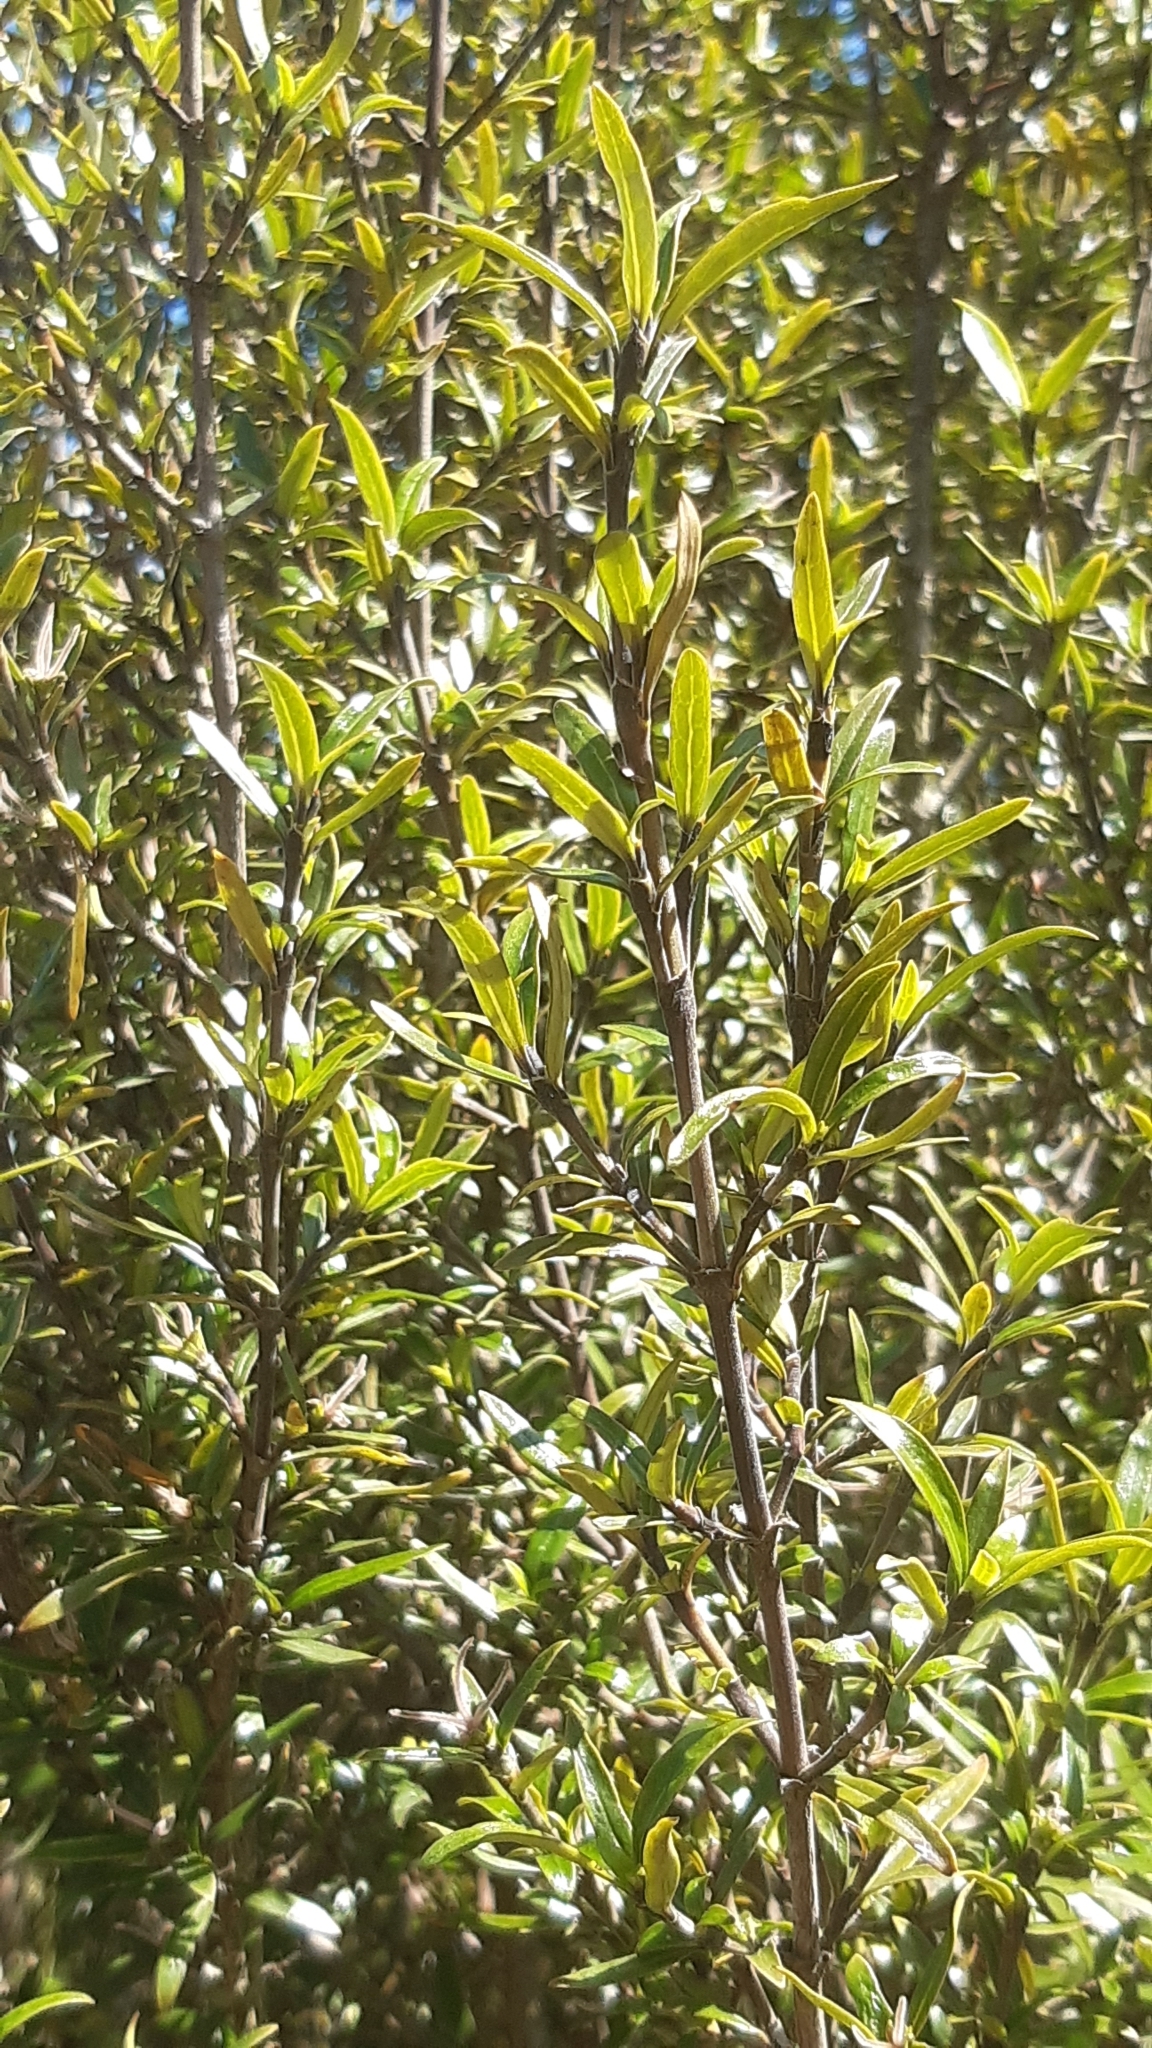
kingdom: Plantae
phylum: Tracheophyta
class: Magnoliopsida
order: Gentianales
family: Rubiaceae
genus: Coprosma
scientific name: Coprosma linariifolia
